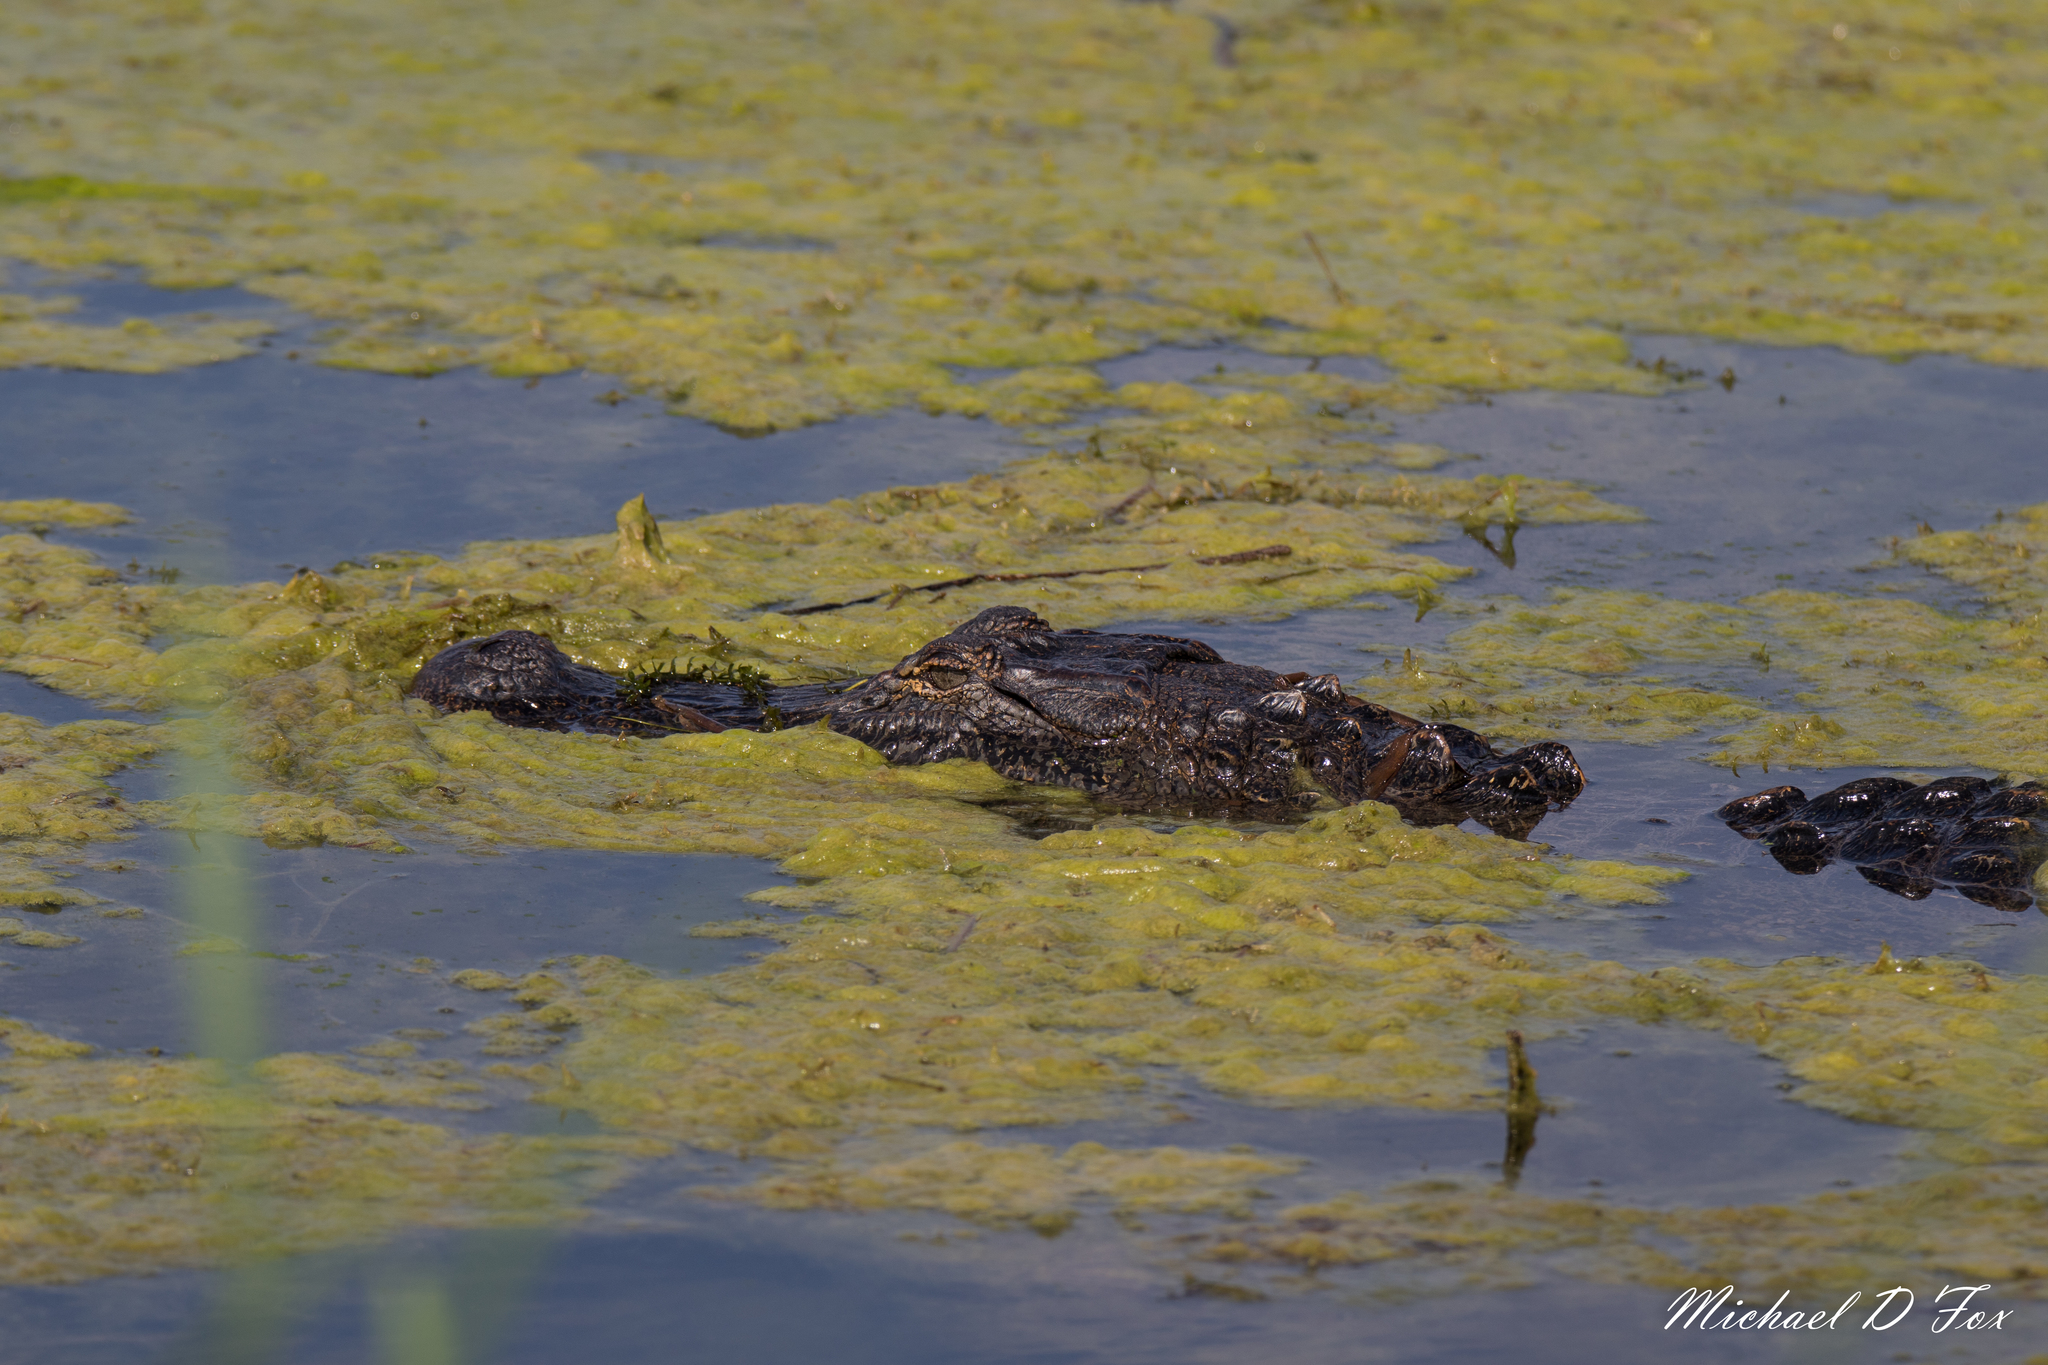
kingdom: Animalia
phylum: Chordata
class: Crocodylia
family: Alligatoridae
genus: Alligator
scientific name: Alligator mississippiensis
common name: American alligator
